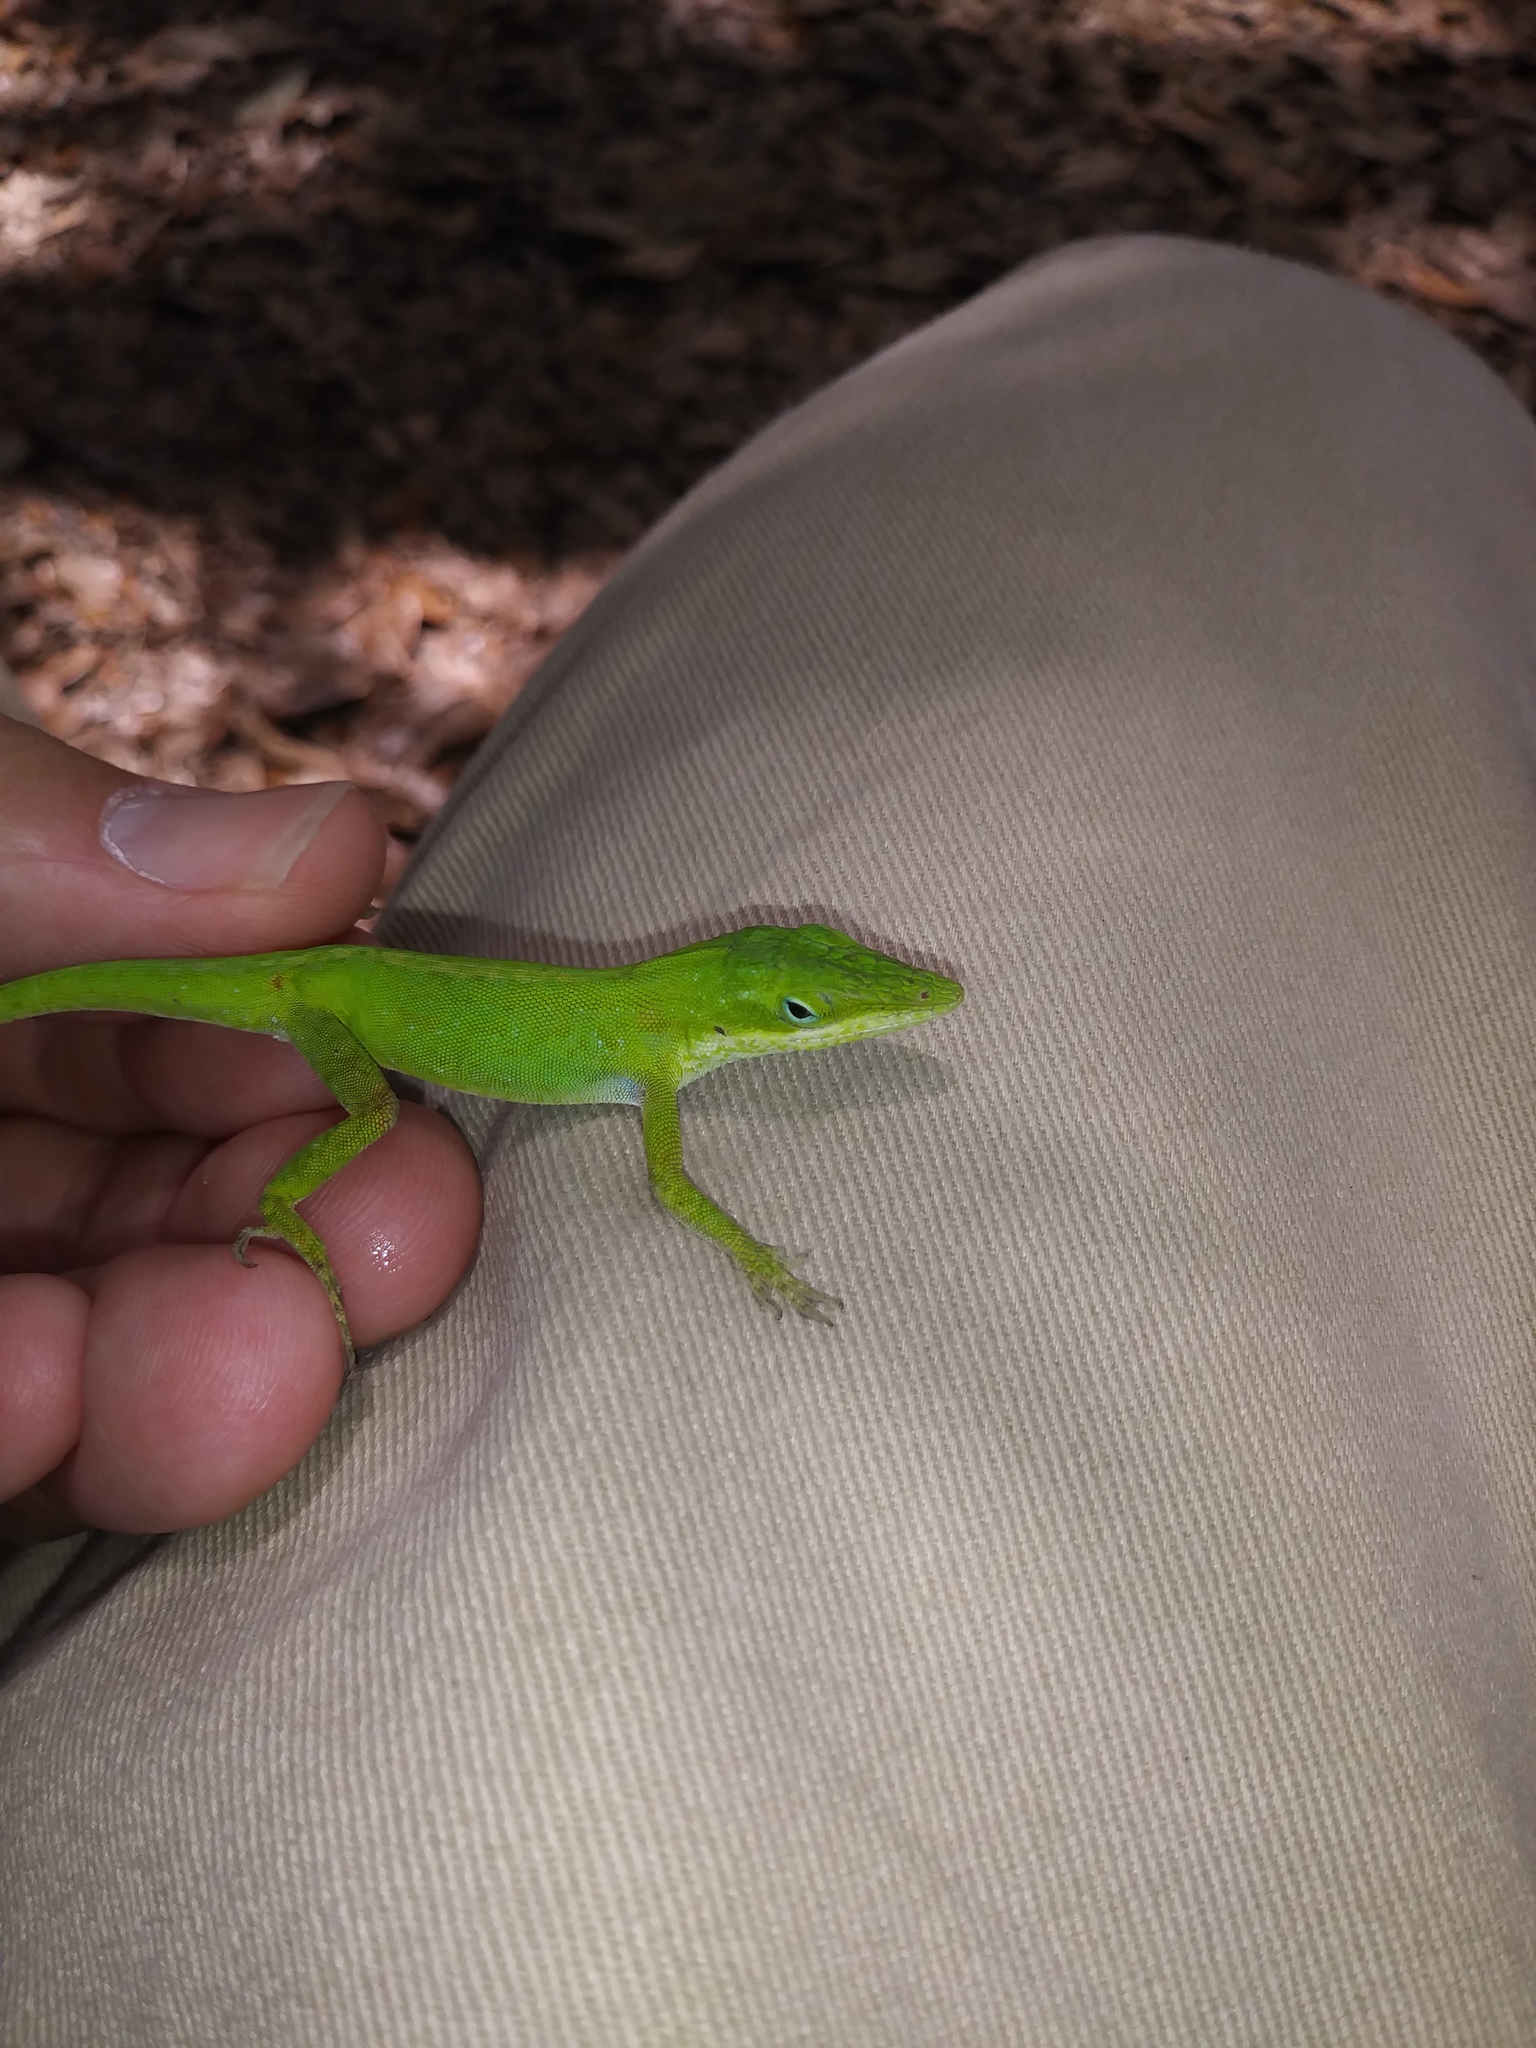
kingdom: Animalia
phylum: Chordata
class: Squamata
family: Dactyloidae
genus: Anolis
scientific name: Anolis carolinensis
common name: Green anole
